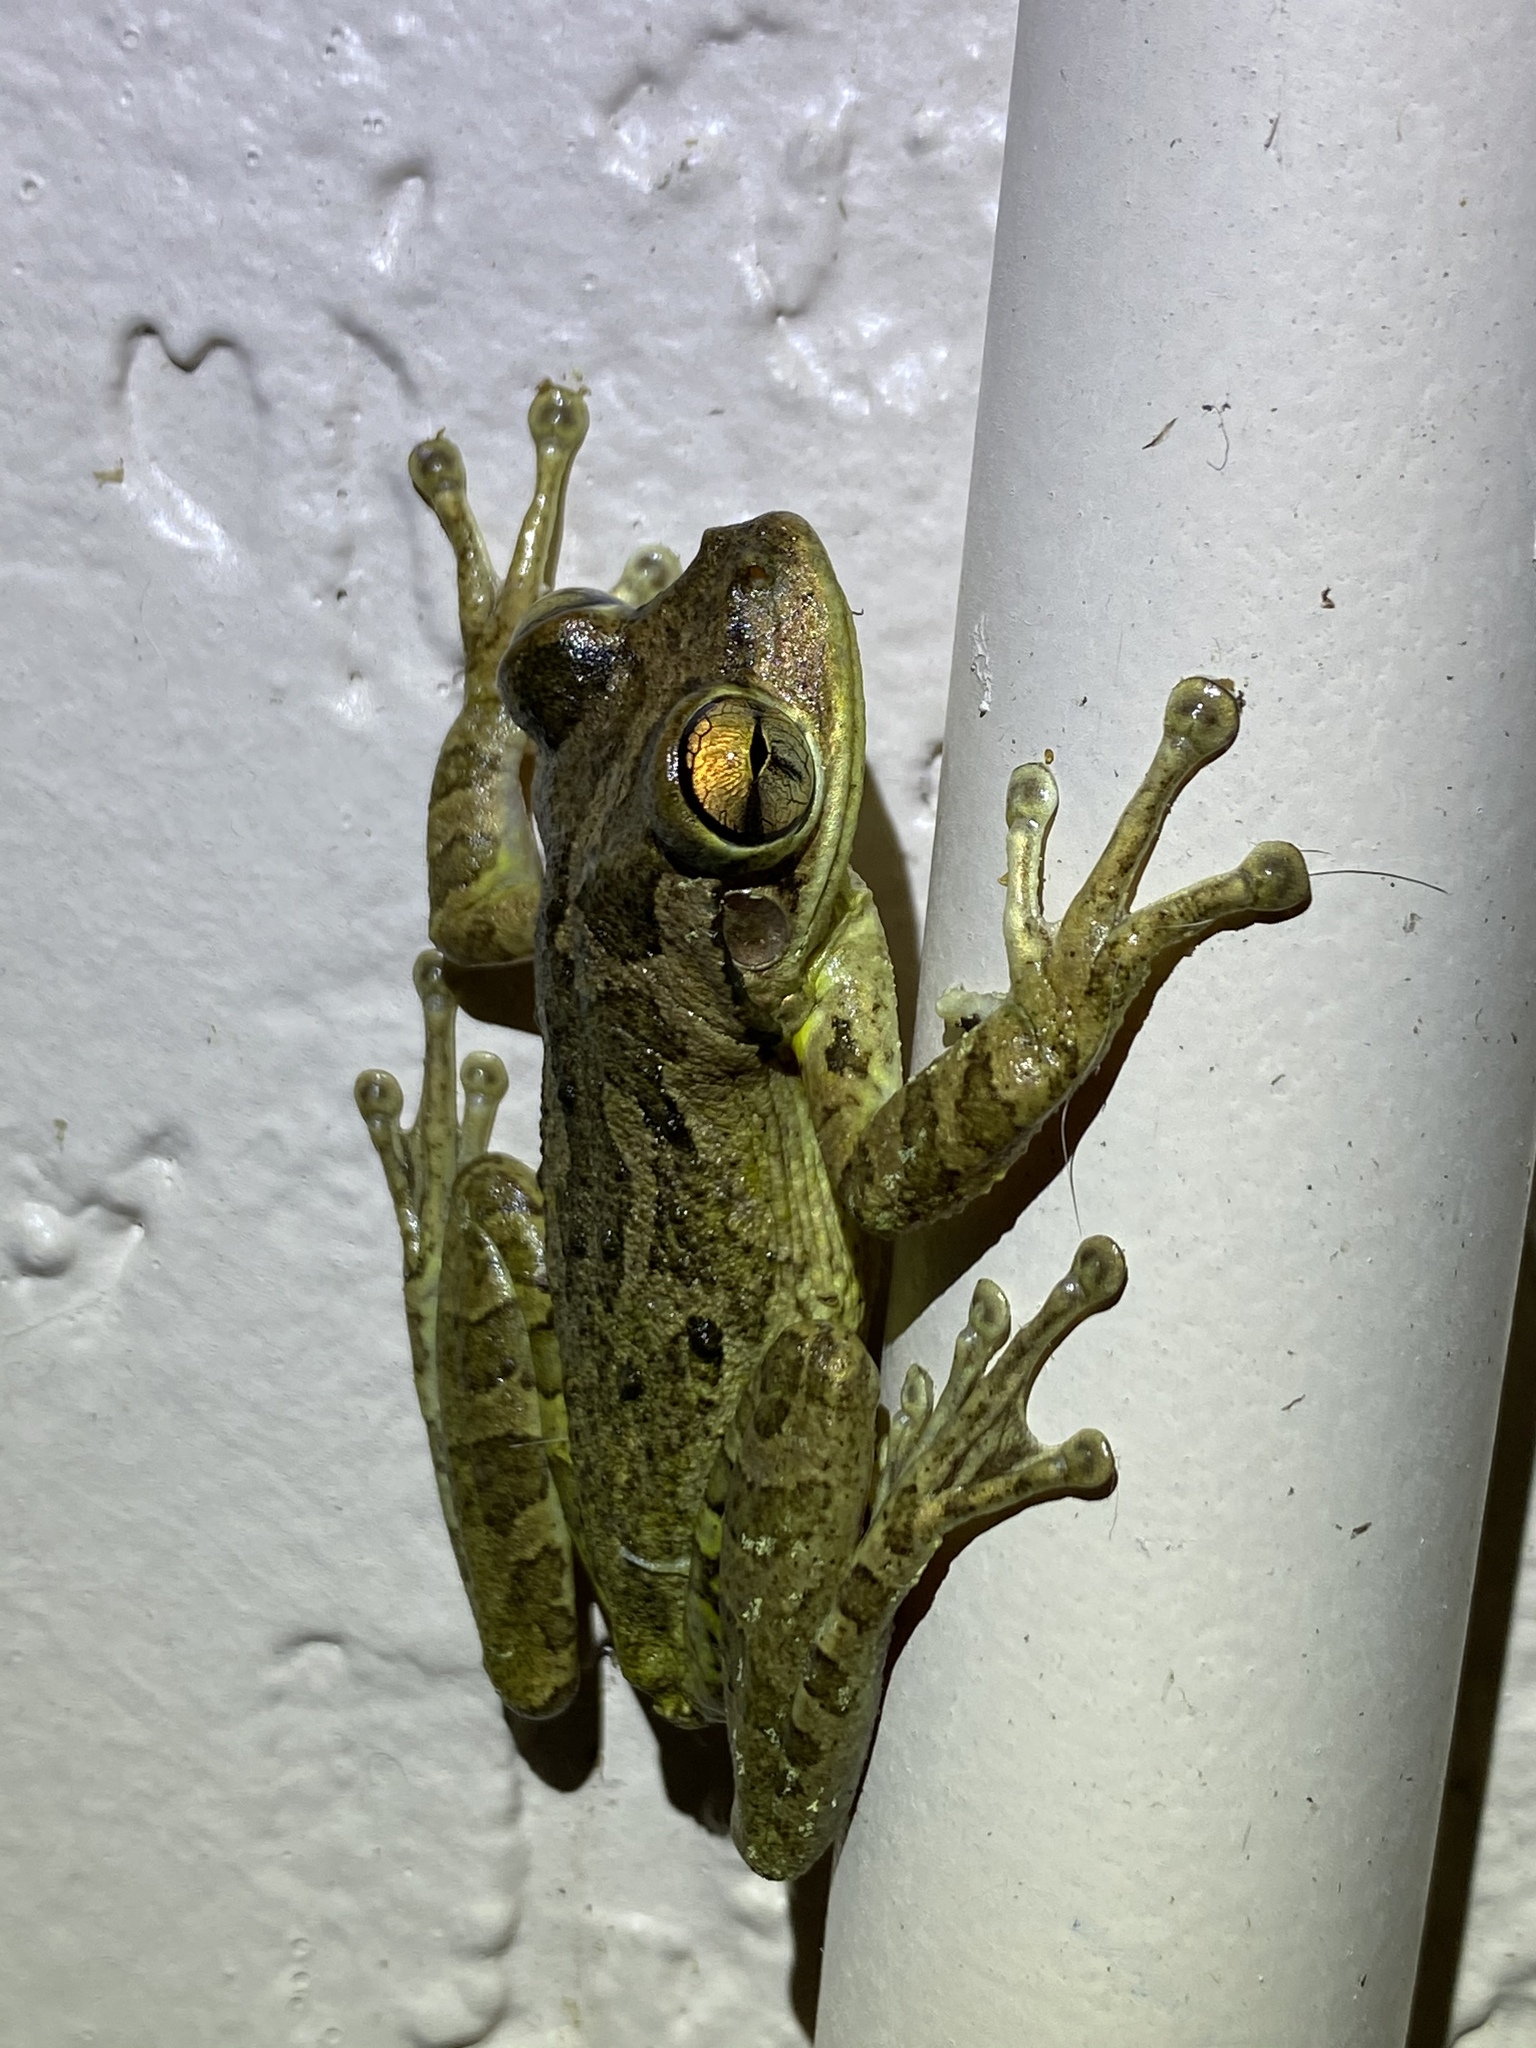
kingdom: Animalia
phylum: Chordata
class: Amphibia
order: Anura
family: Hylidae
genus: Osteopilus
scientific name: Osteopilus septentrionalis
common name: Cuban treefrog
